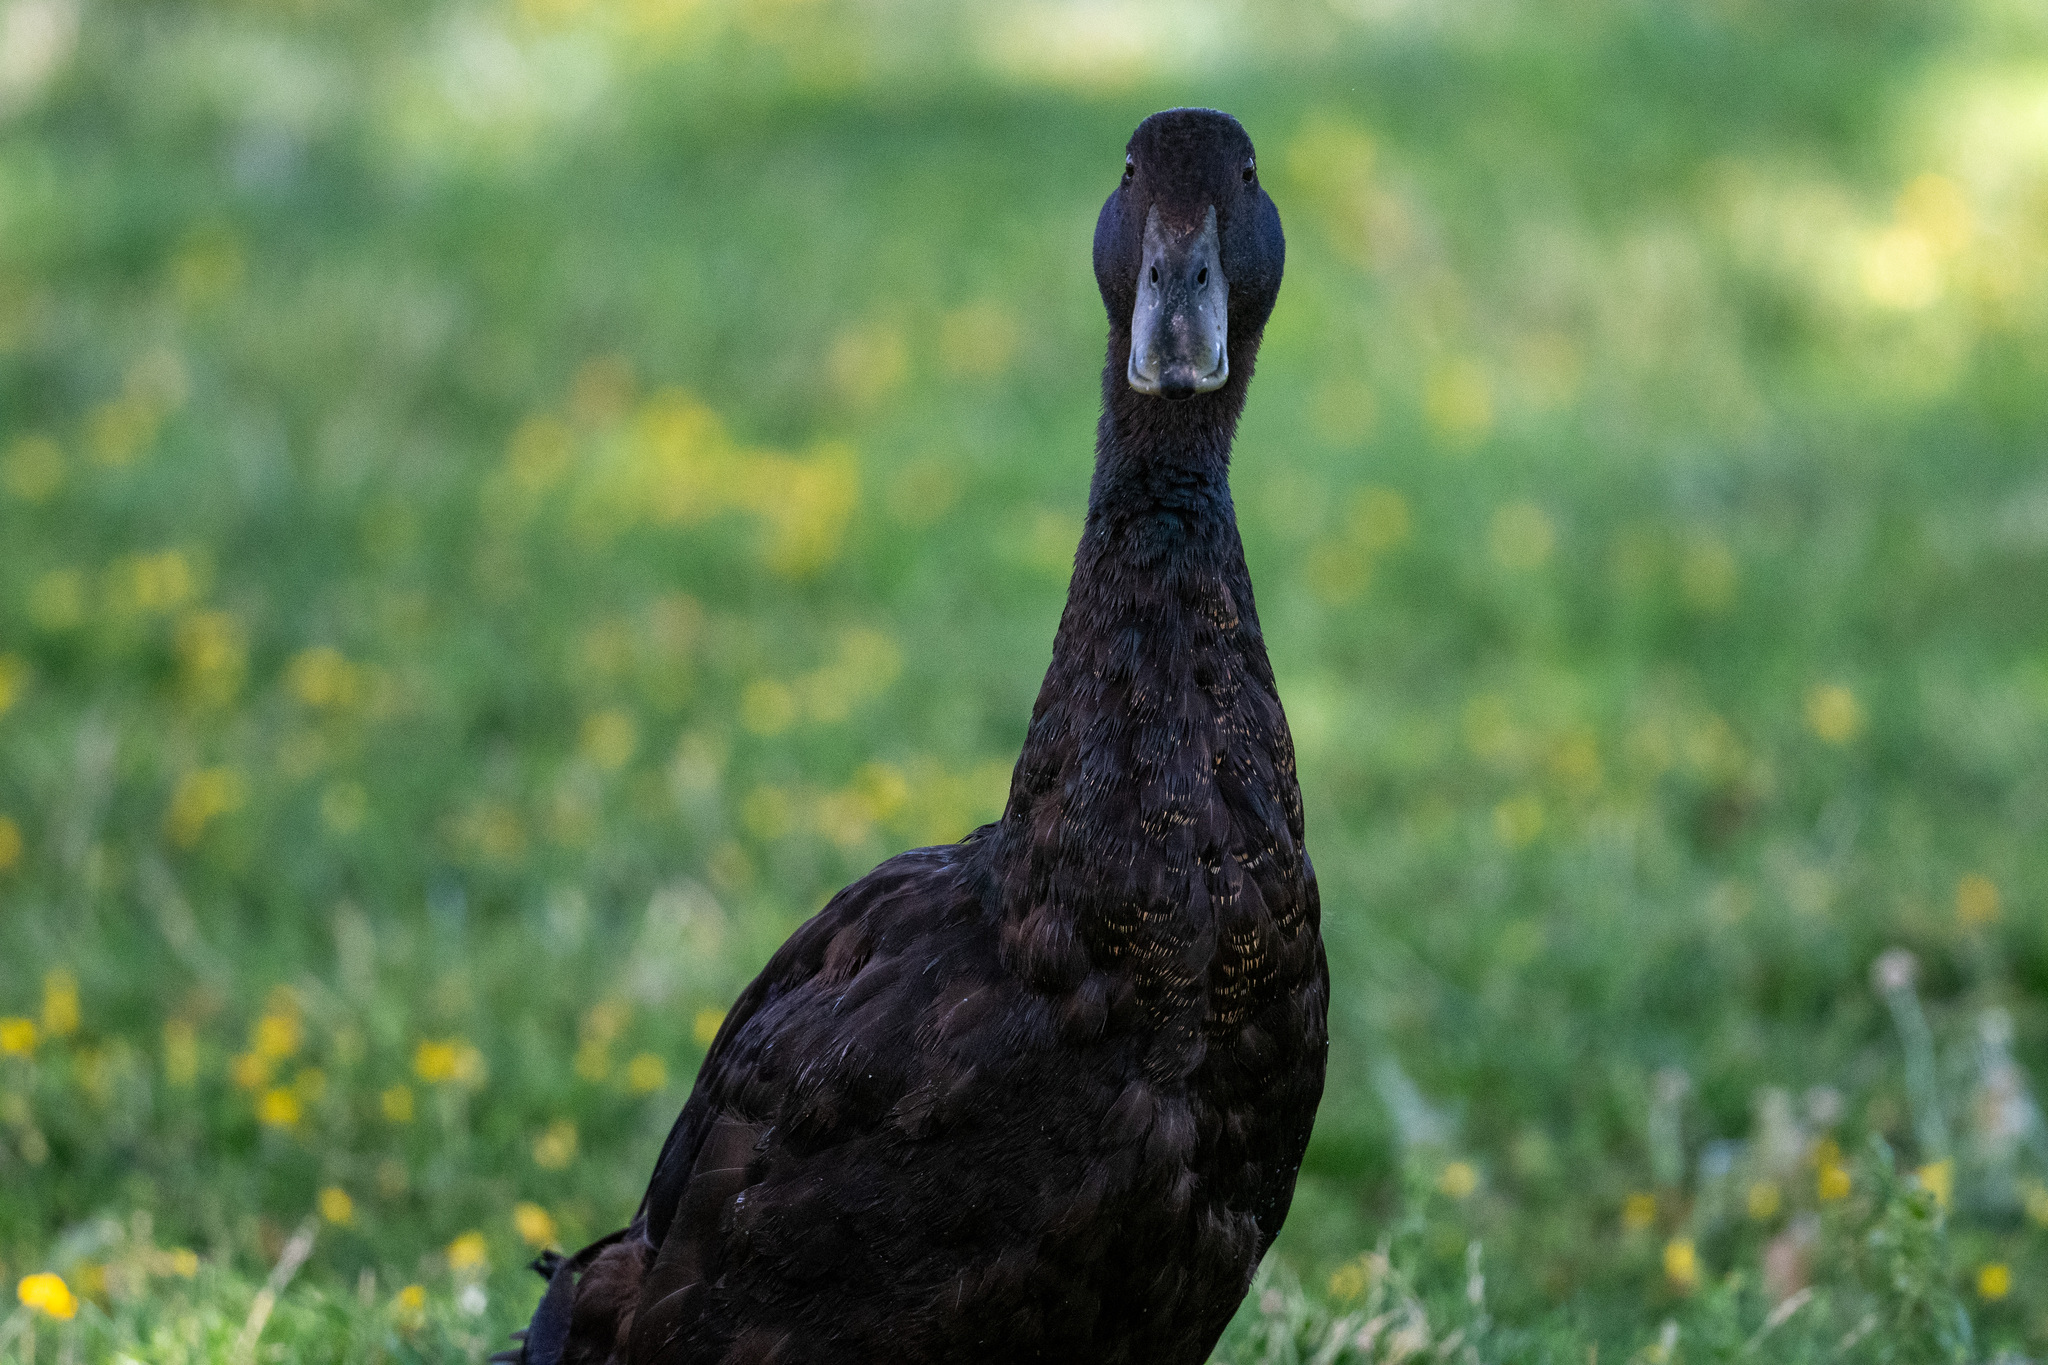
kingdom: Animalia
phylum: Chordata
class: Aves
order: Anseriformes
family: Anatidae
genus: Anas
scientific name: Anas platyrhynchos
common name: Mallard
